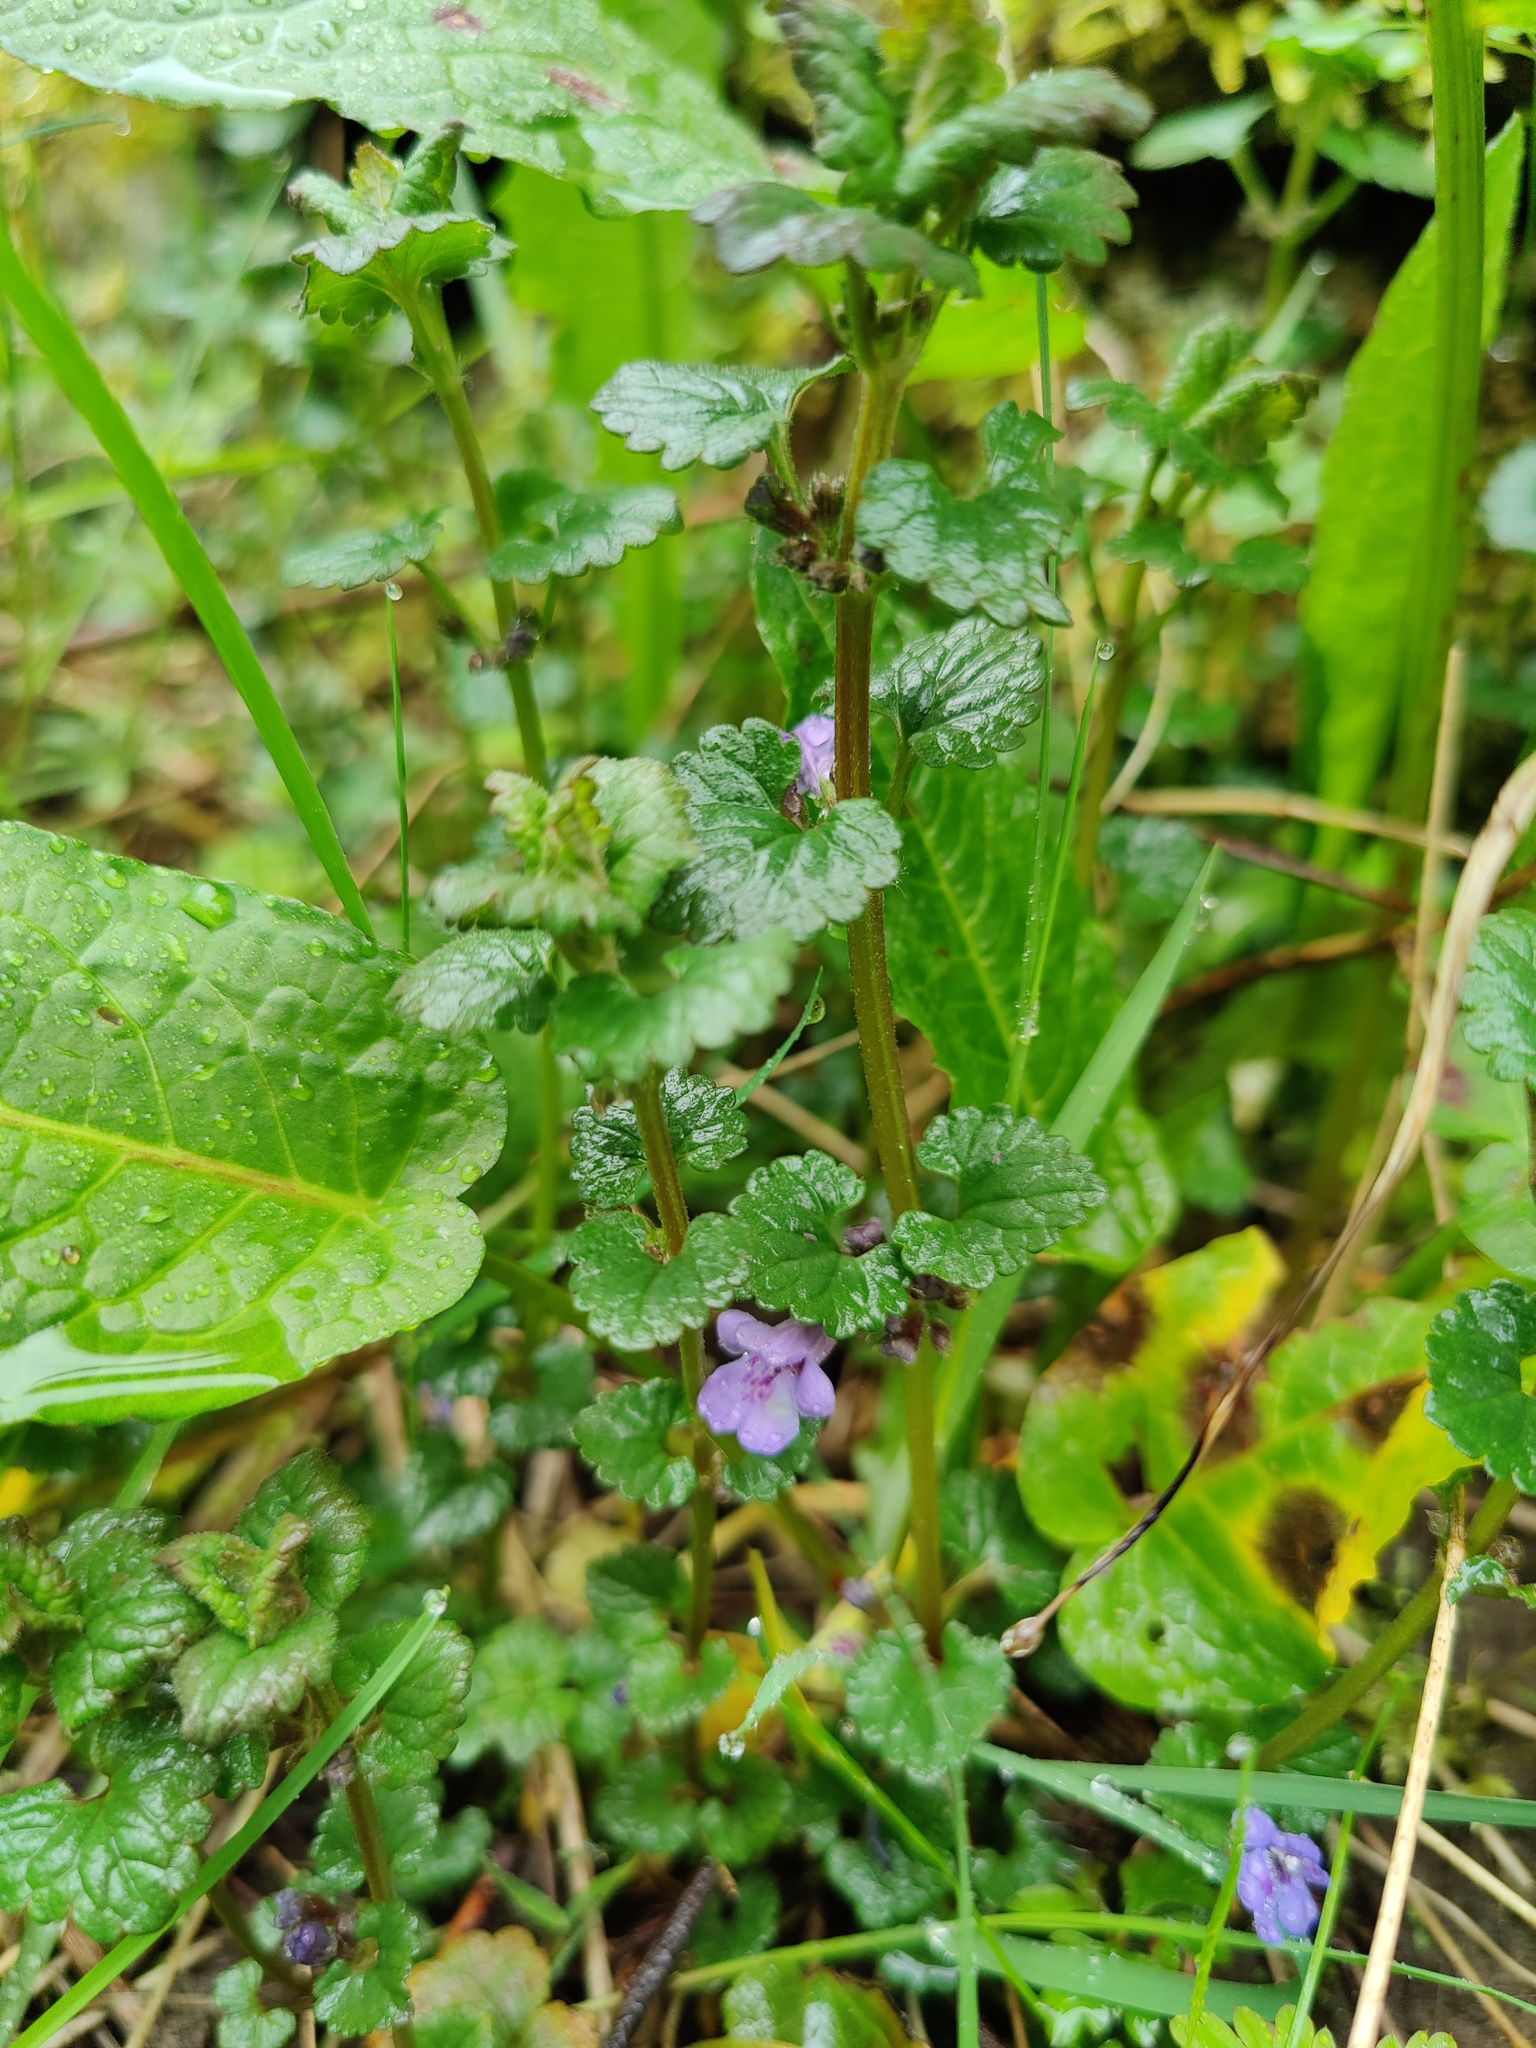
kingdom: Plantae
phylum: Tracheophyta
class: Magnoliopsida
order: Lamiales
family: Lamiaceae
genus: Glechoma
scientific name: Glechoma hederacea
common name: Ground ivy
